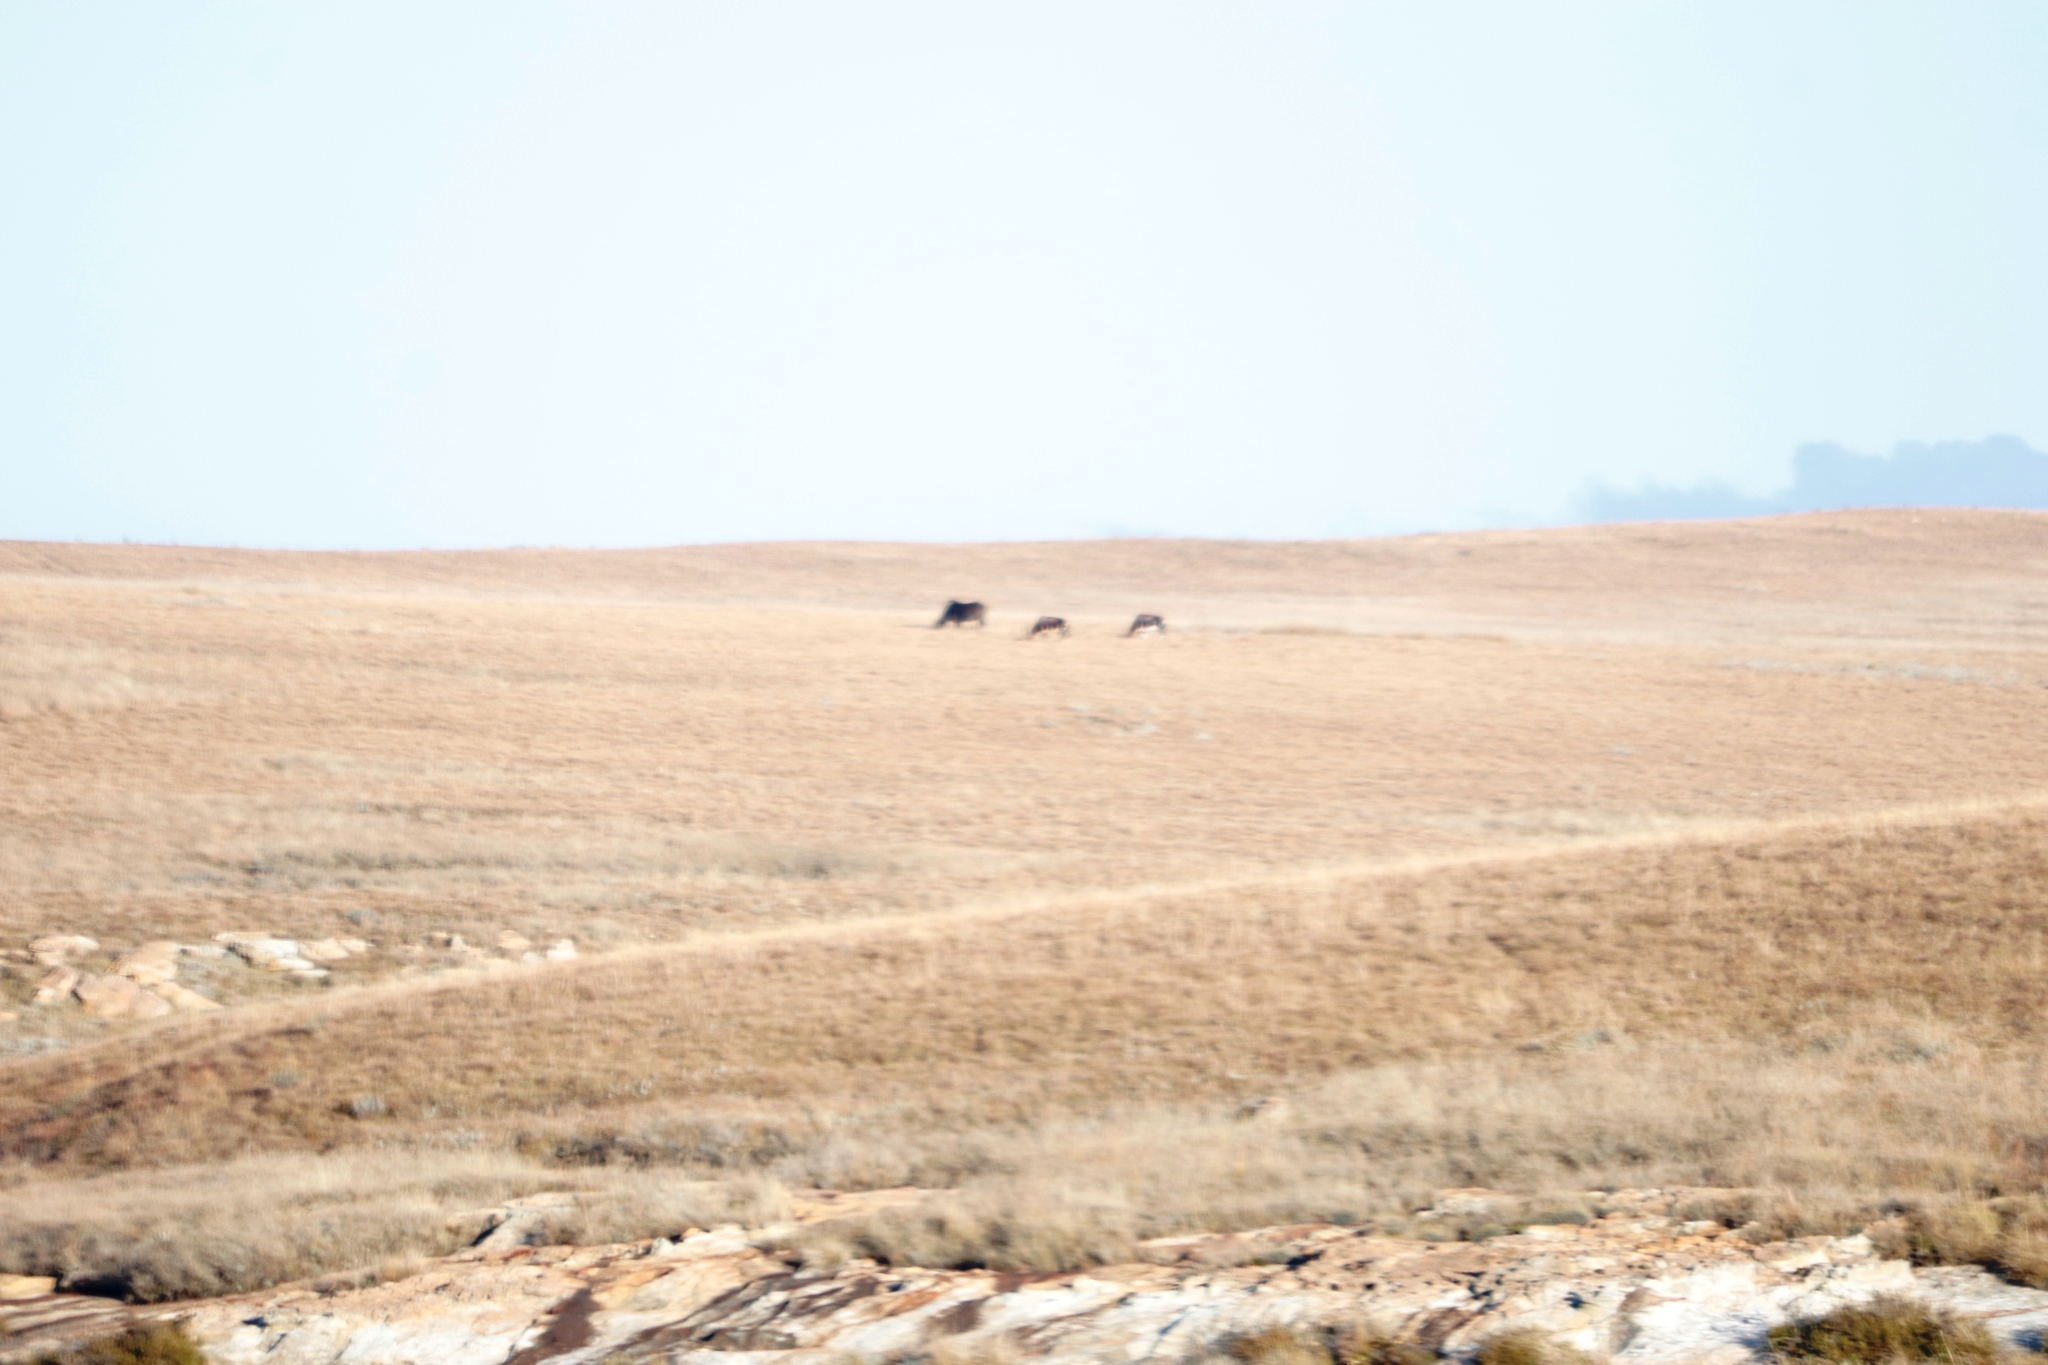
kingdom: Animalia
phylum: Chordata
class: Mammalia
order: Artiodactyla
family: Bovidae
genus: Connochaetes
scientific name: Connochaetes gnou
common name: Black wildebeest
